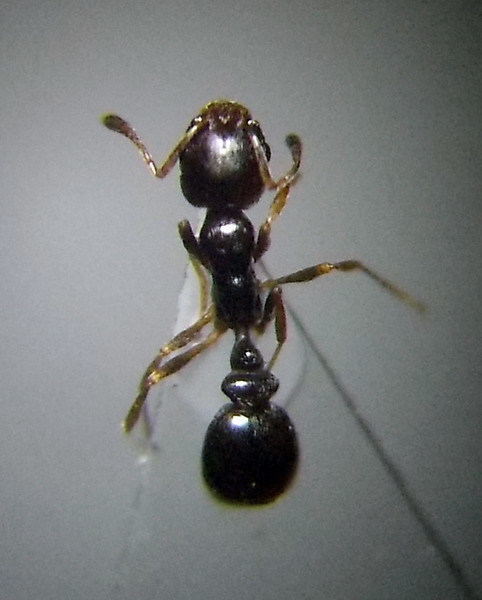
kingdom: Animalia
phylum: Arthropoda
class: Insecta
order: Hymenoptera
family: Formicidae
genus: Cardiocondyla
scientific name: Cardiocondyla stambuloffii
